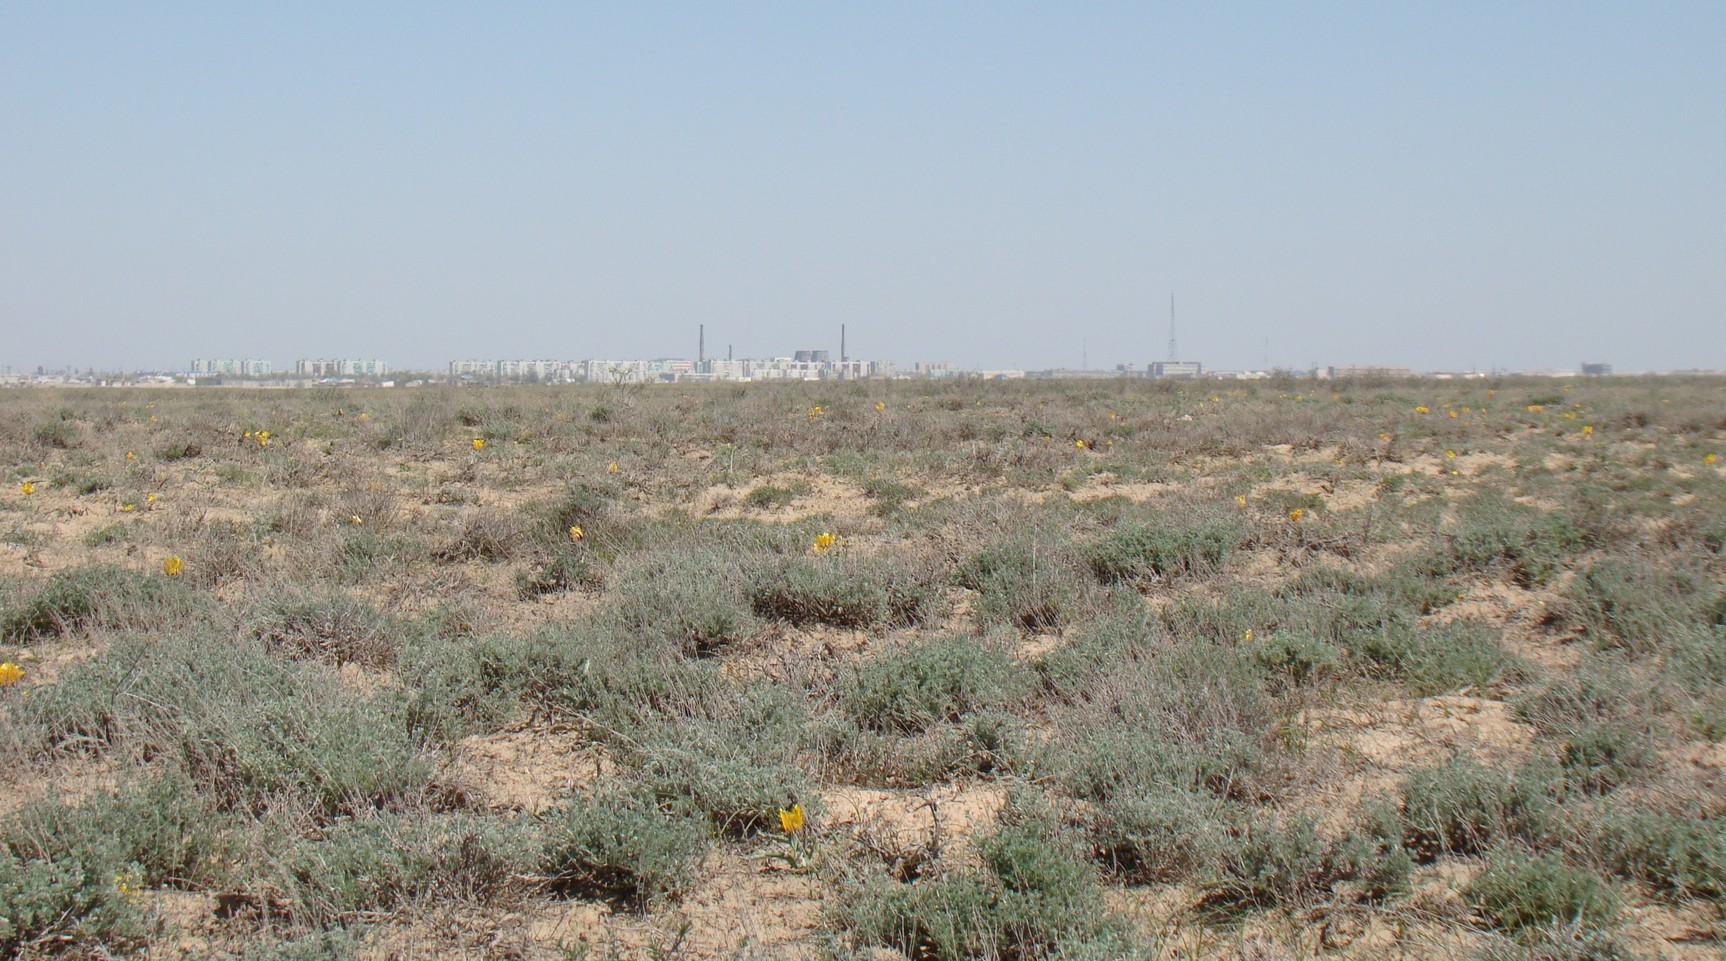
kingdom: Plantae
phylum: Tracheophyta
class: Liliopsida
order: Liliales
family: Liliaceae
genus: Tulipa
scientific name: Tulipa borszczowii
